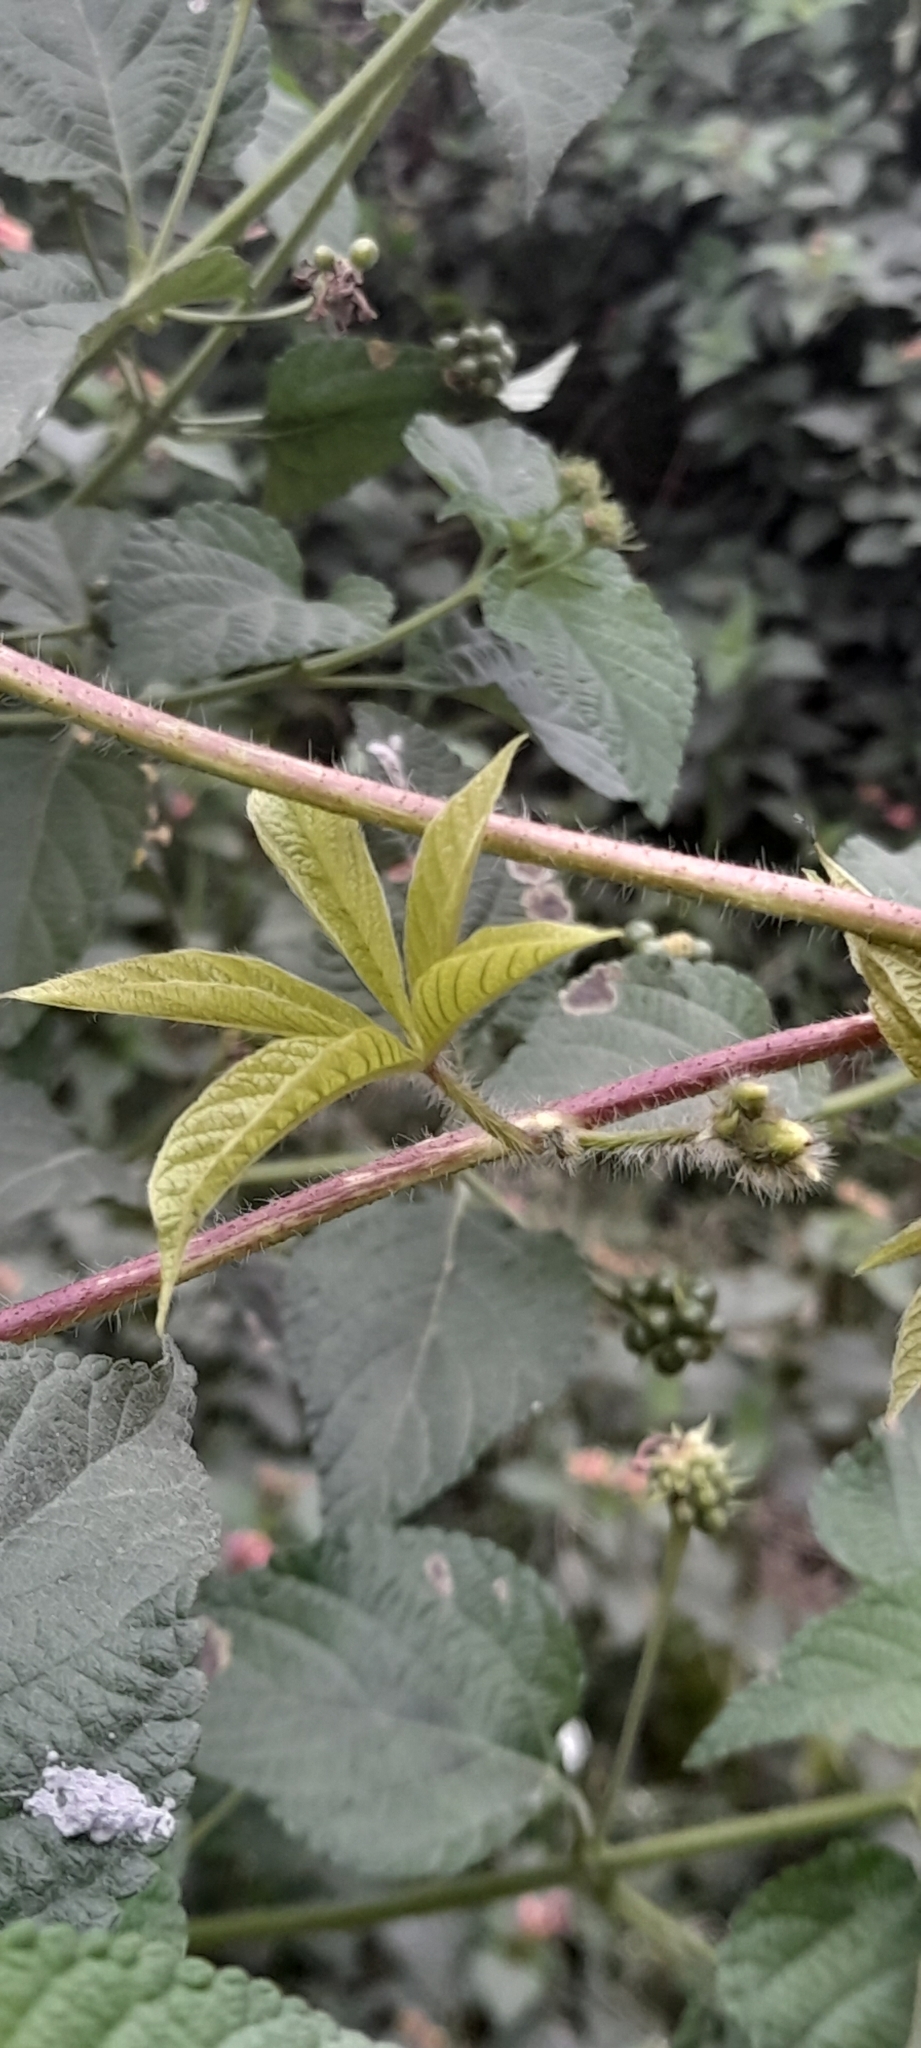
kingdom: Plantae
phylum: Tracheophyta
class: Magnoliopsida
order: Solanales
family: Convolvulaceae
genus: Distimake
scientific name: Distimake aegyptius
